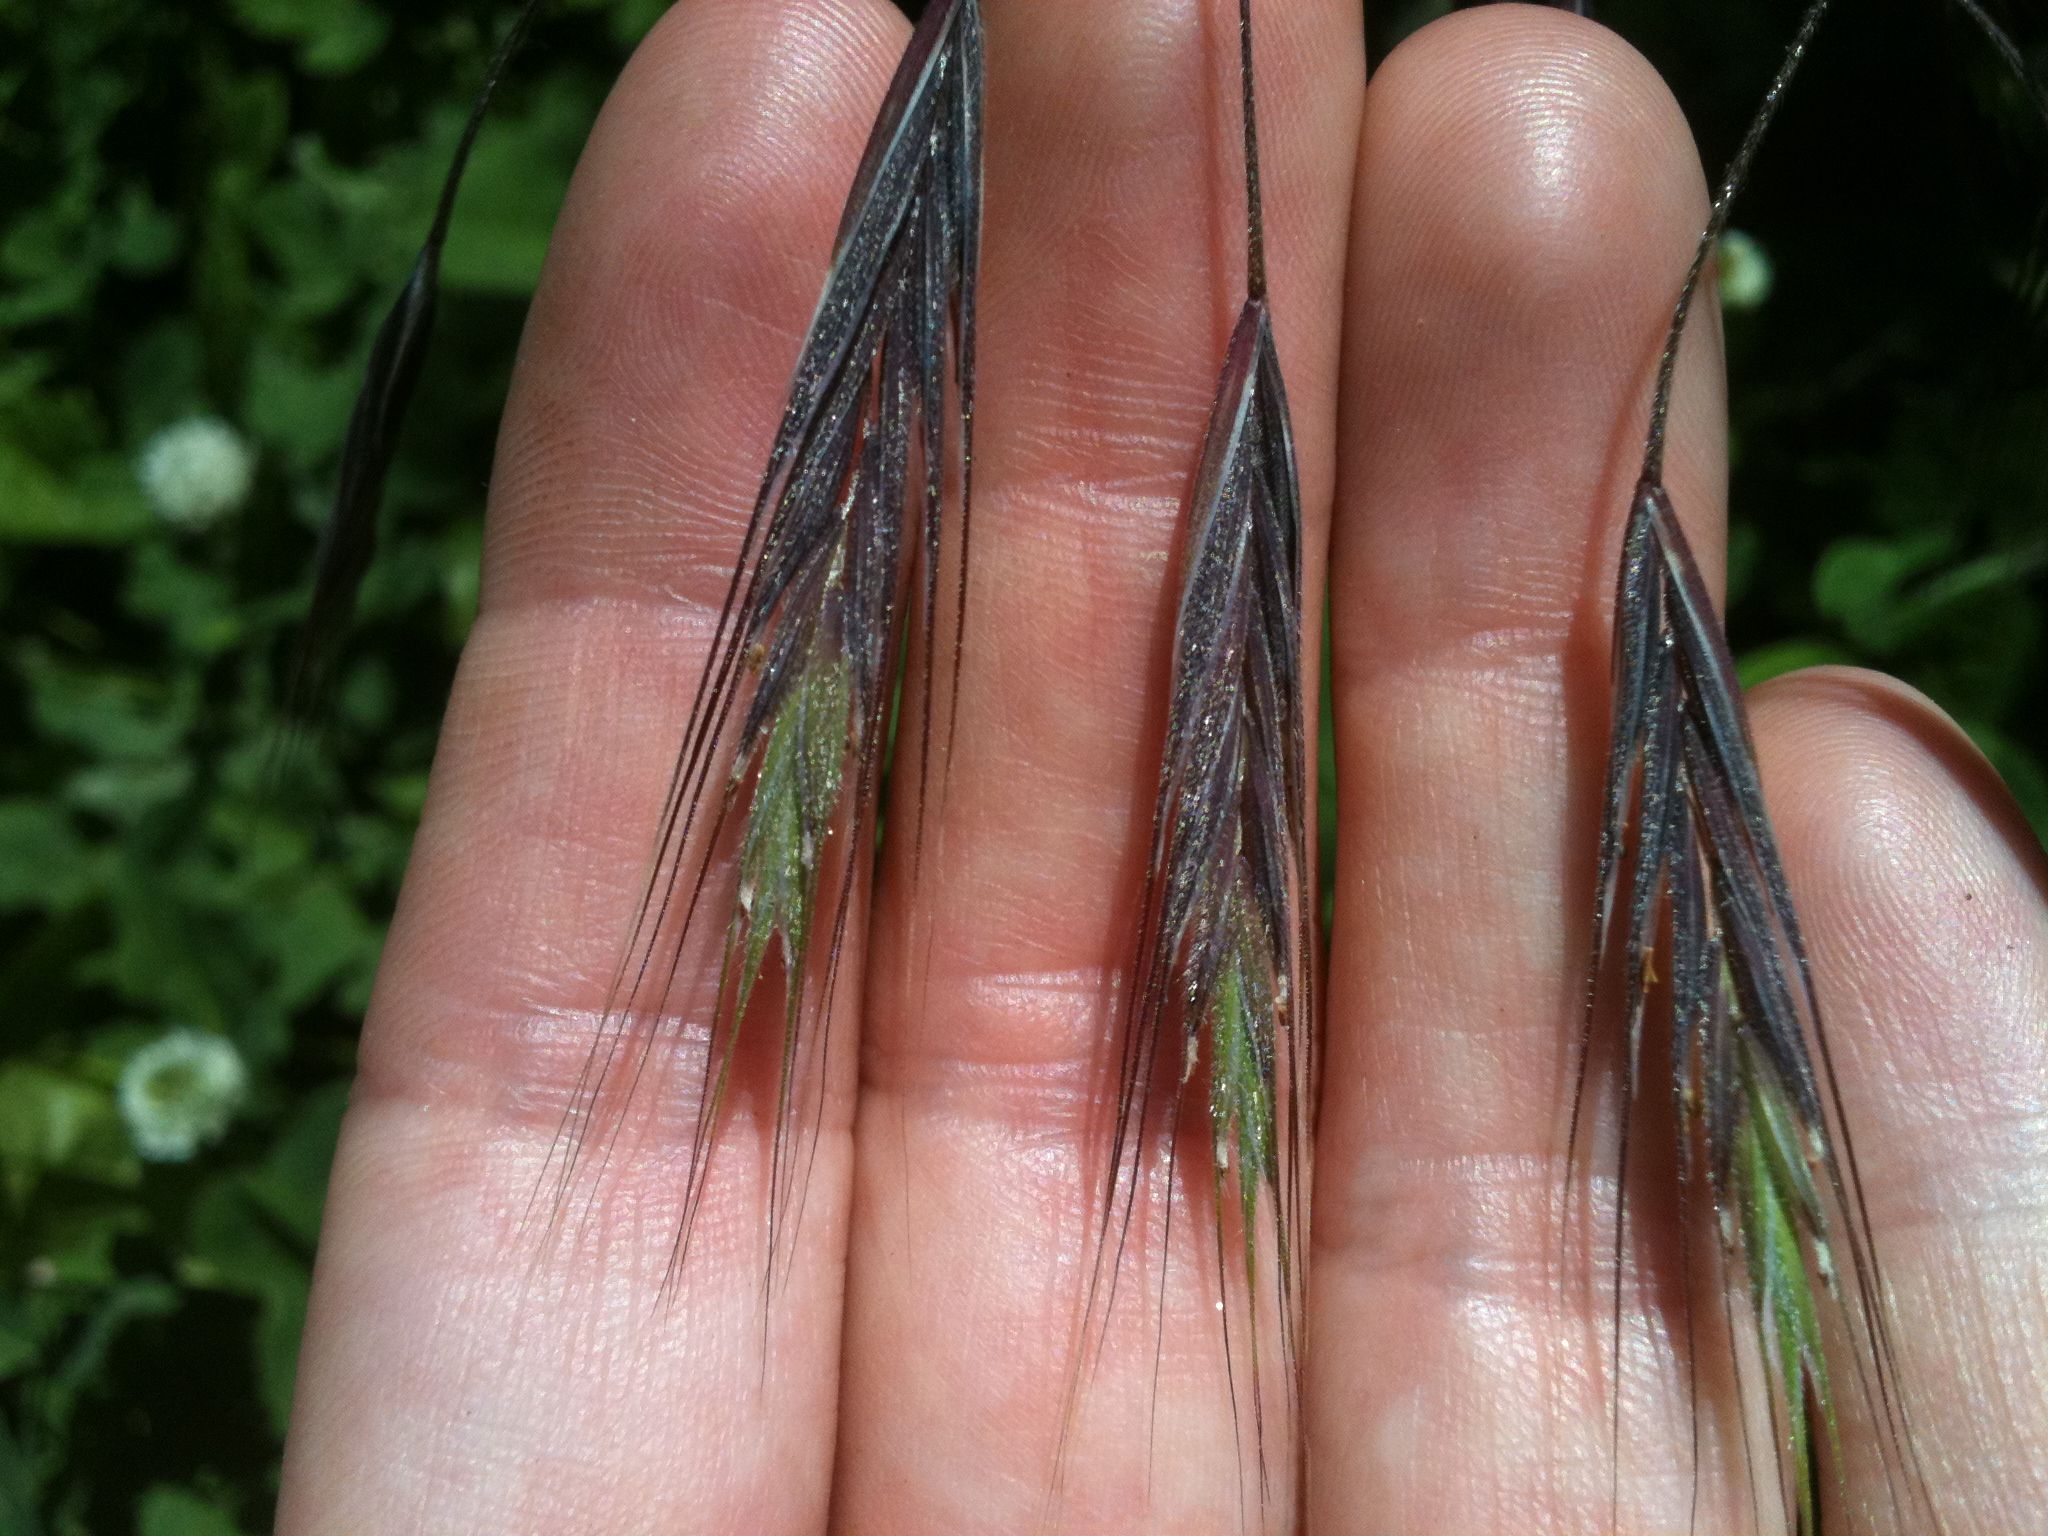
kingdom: Plantae
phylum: Tracheophyta
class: Liliopsida
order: Poales
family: Poaceae
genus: Bromus
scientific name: Bromus commutatus
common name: Meadow brome
